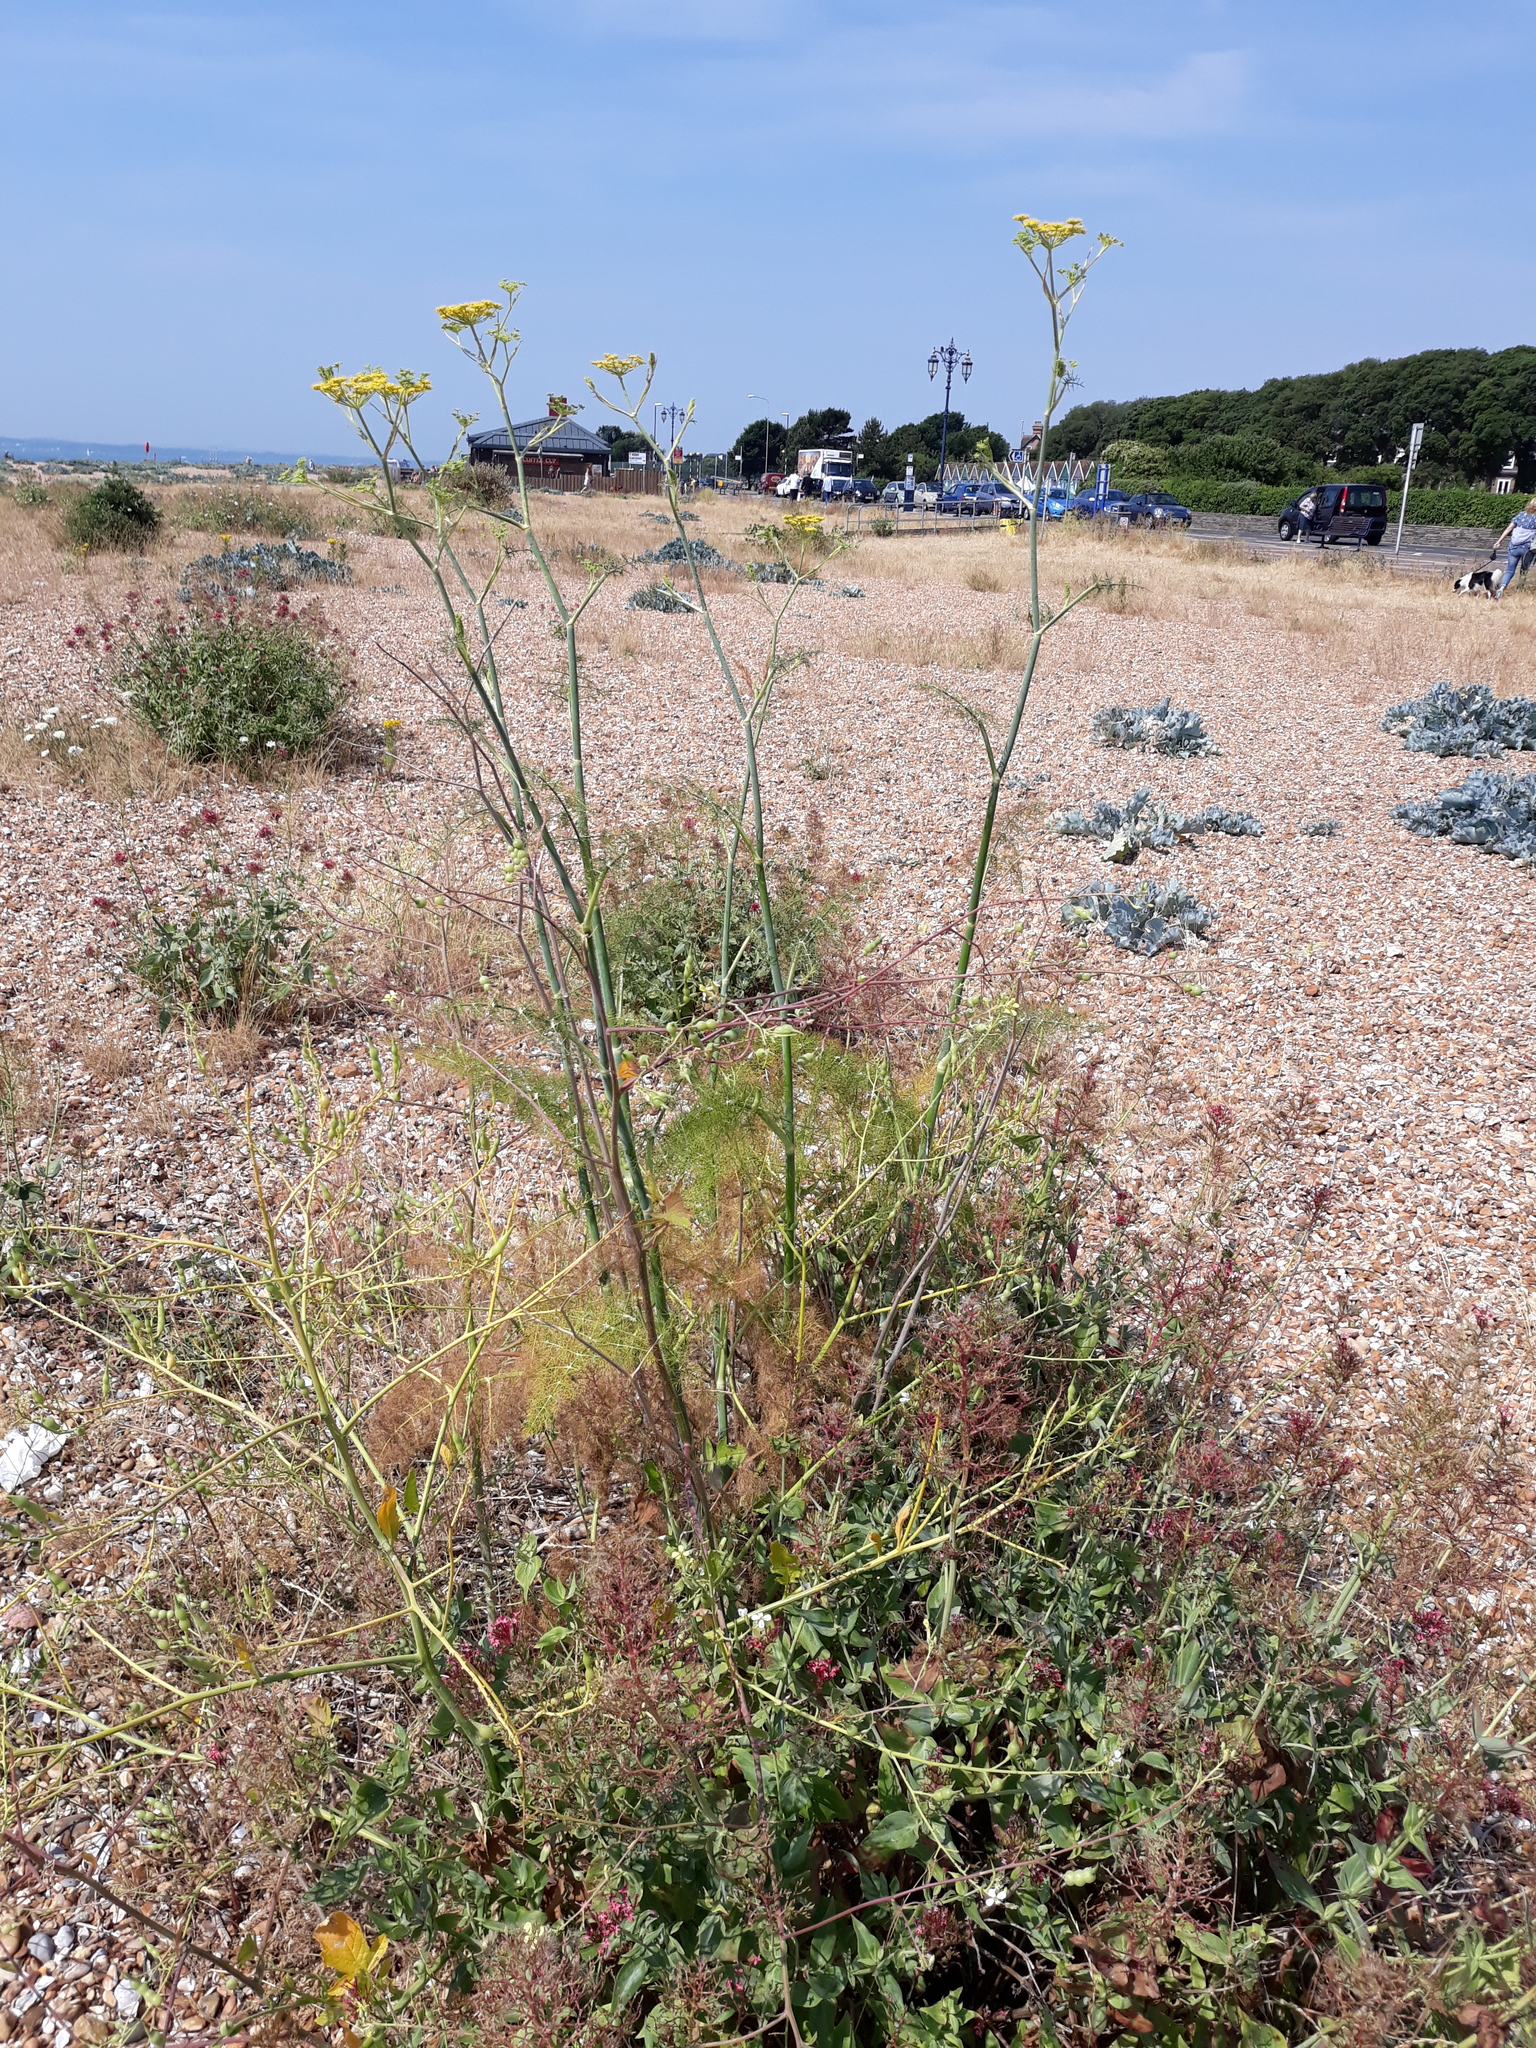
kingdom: Plantae
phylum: Tracheophyta
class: Magnoliopsida
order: Apiales
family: Apiaceae
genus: Foeniculum
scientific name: Foeniculum vulgare
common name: Fennel
